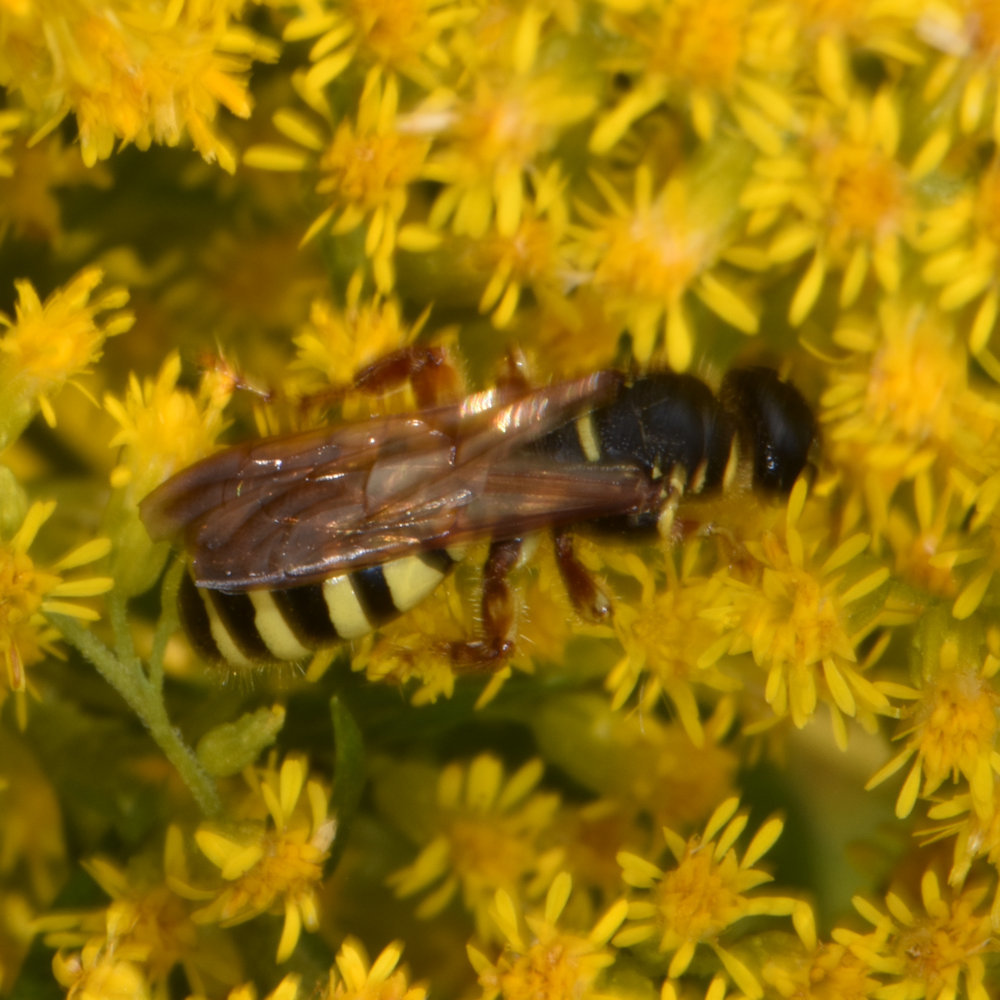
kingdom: Animalia
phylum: Arthropoda
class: Insecta
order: Hymenoptera
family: Tiphiidae
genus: Myzinum
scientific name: Myzinum quinquecinctum
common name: Five-banded thynnid wasp
